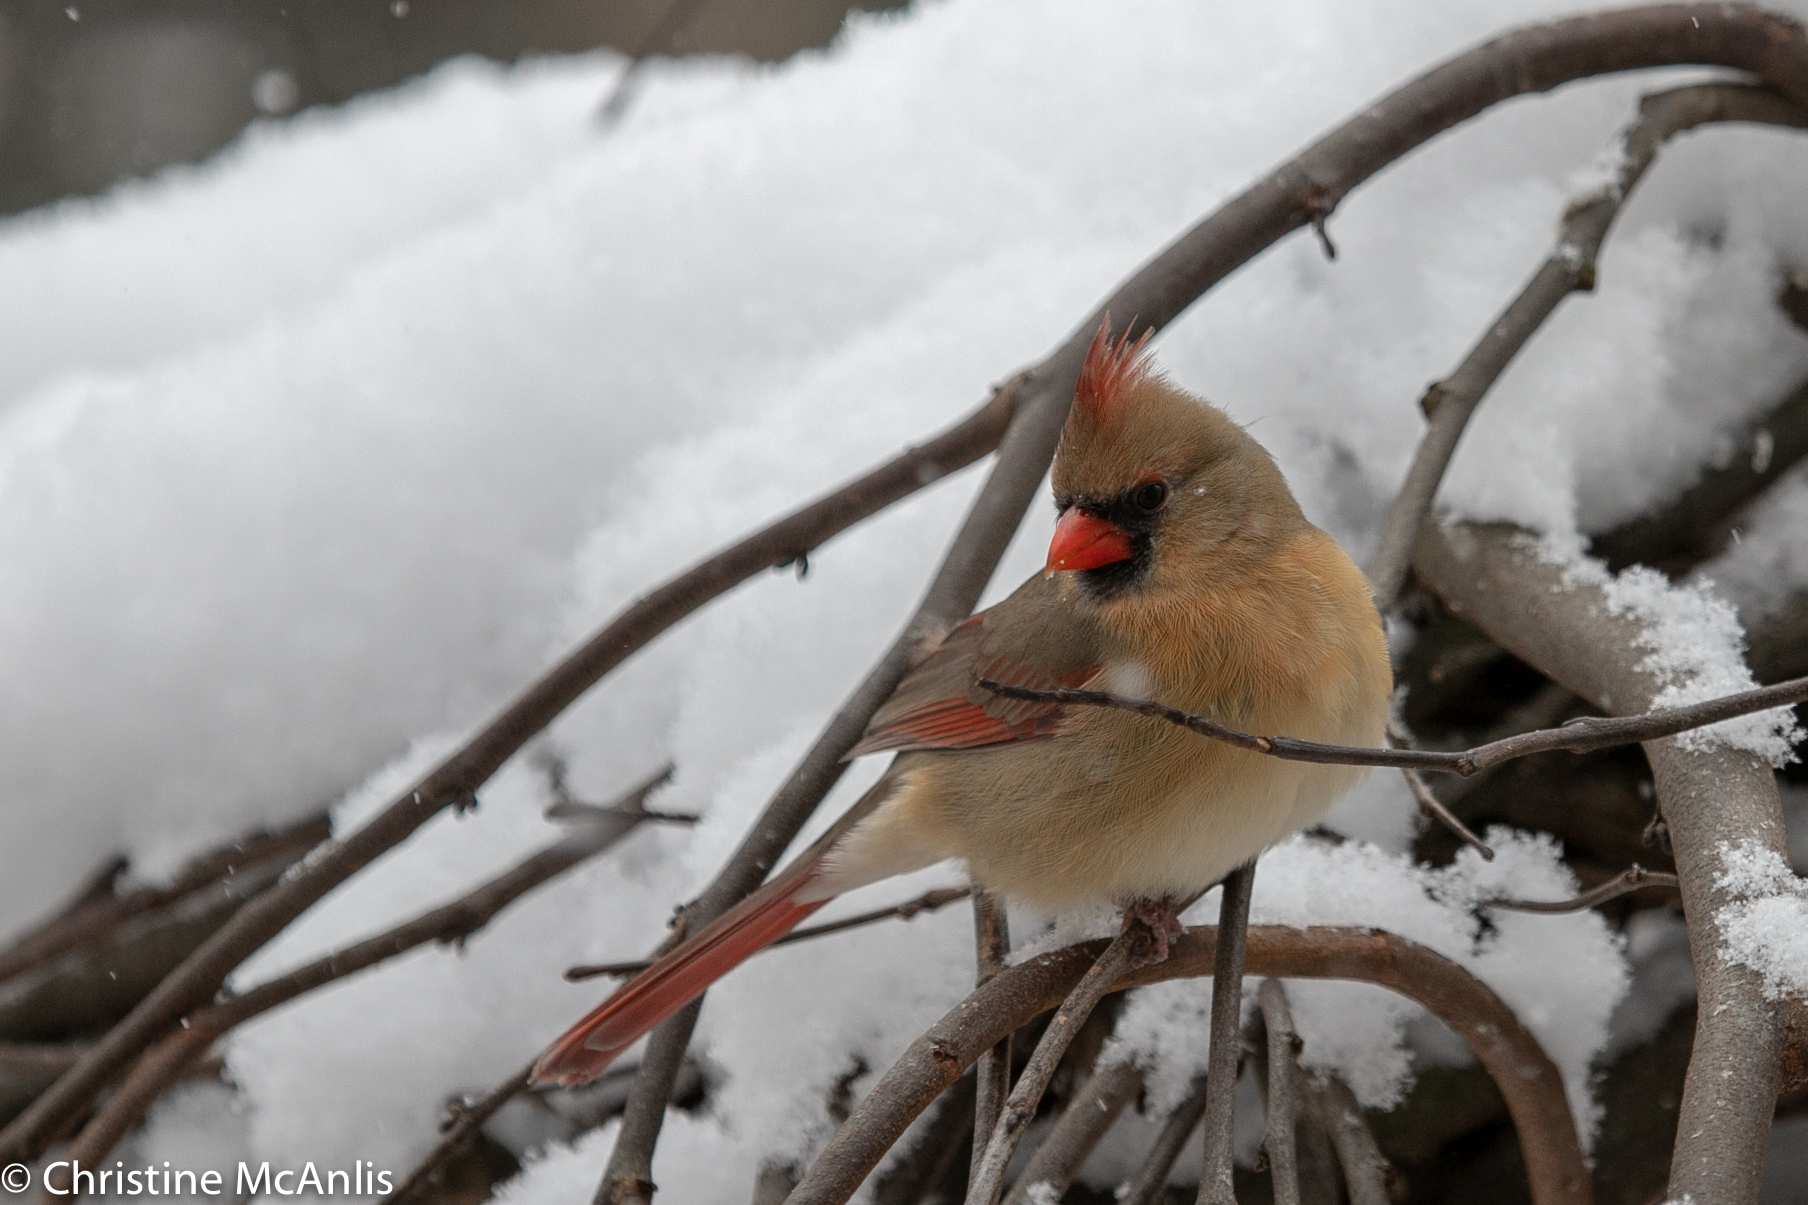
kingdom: Animalia
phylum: Chordata
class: Aves
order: Passeriformes
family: Cardinalidae
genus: Cardinalis
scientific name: Cardinalis cardinalis
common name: Northern cardinal
